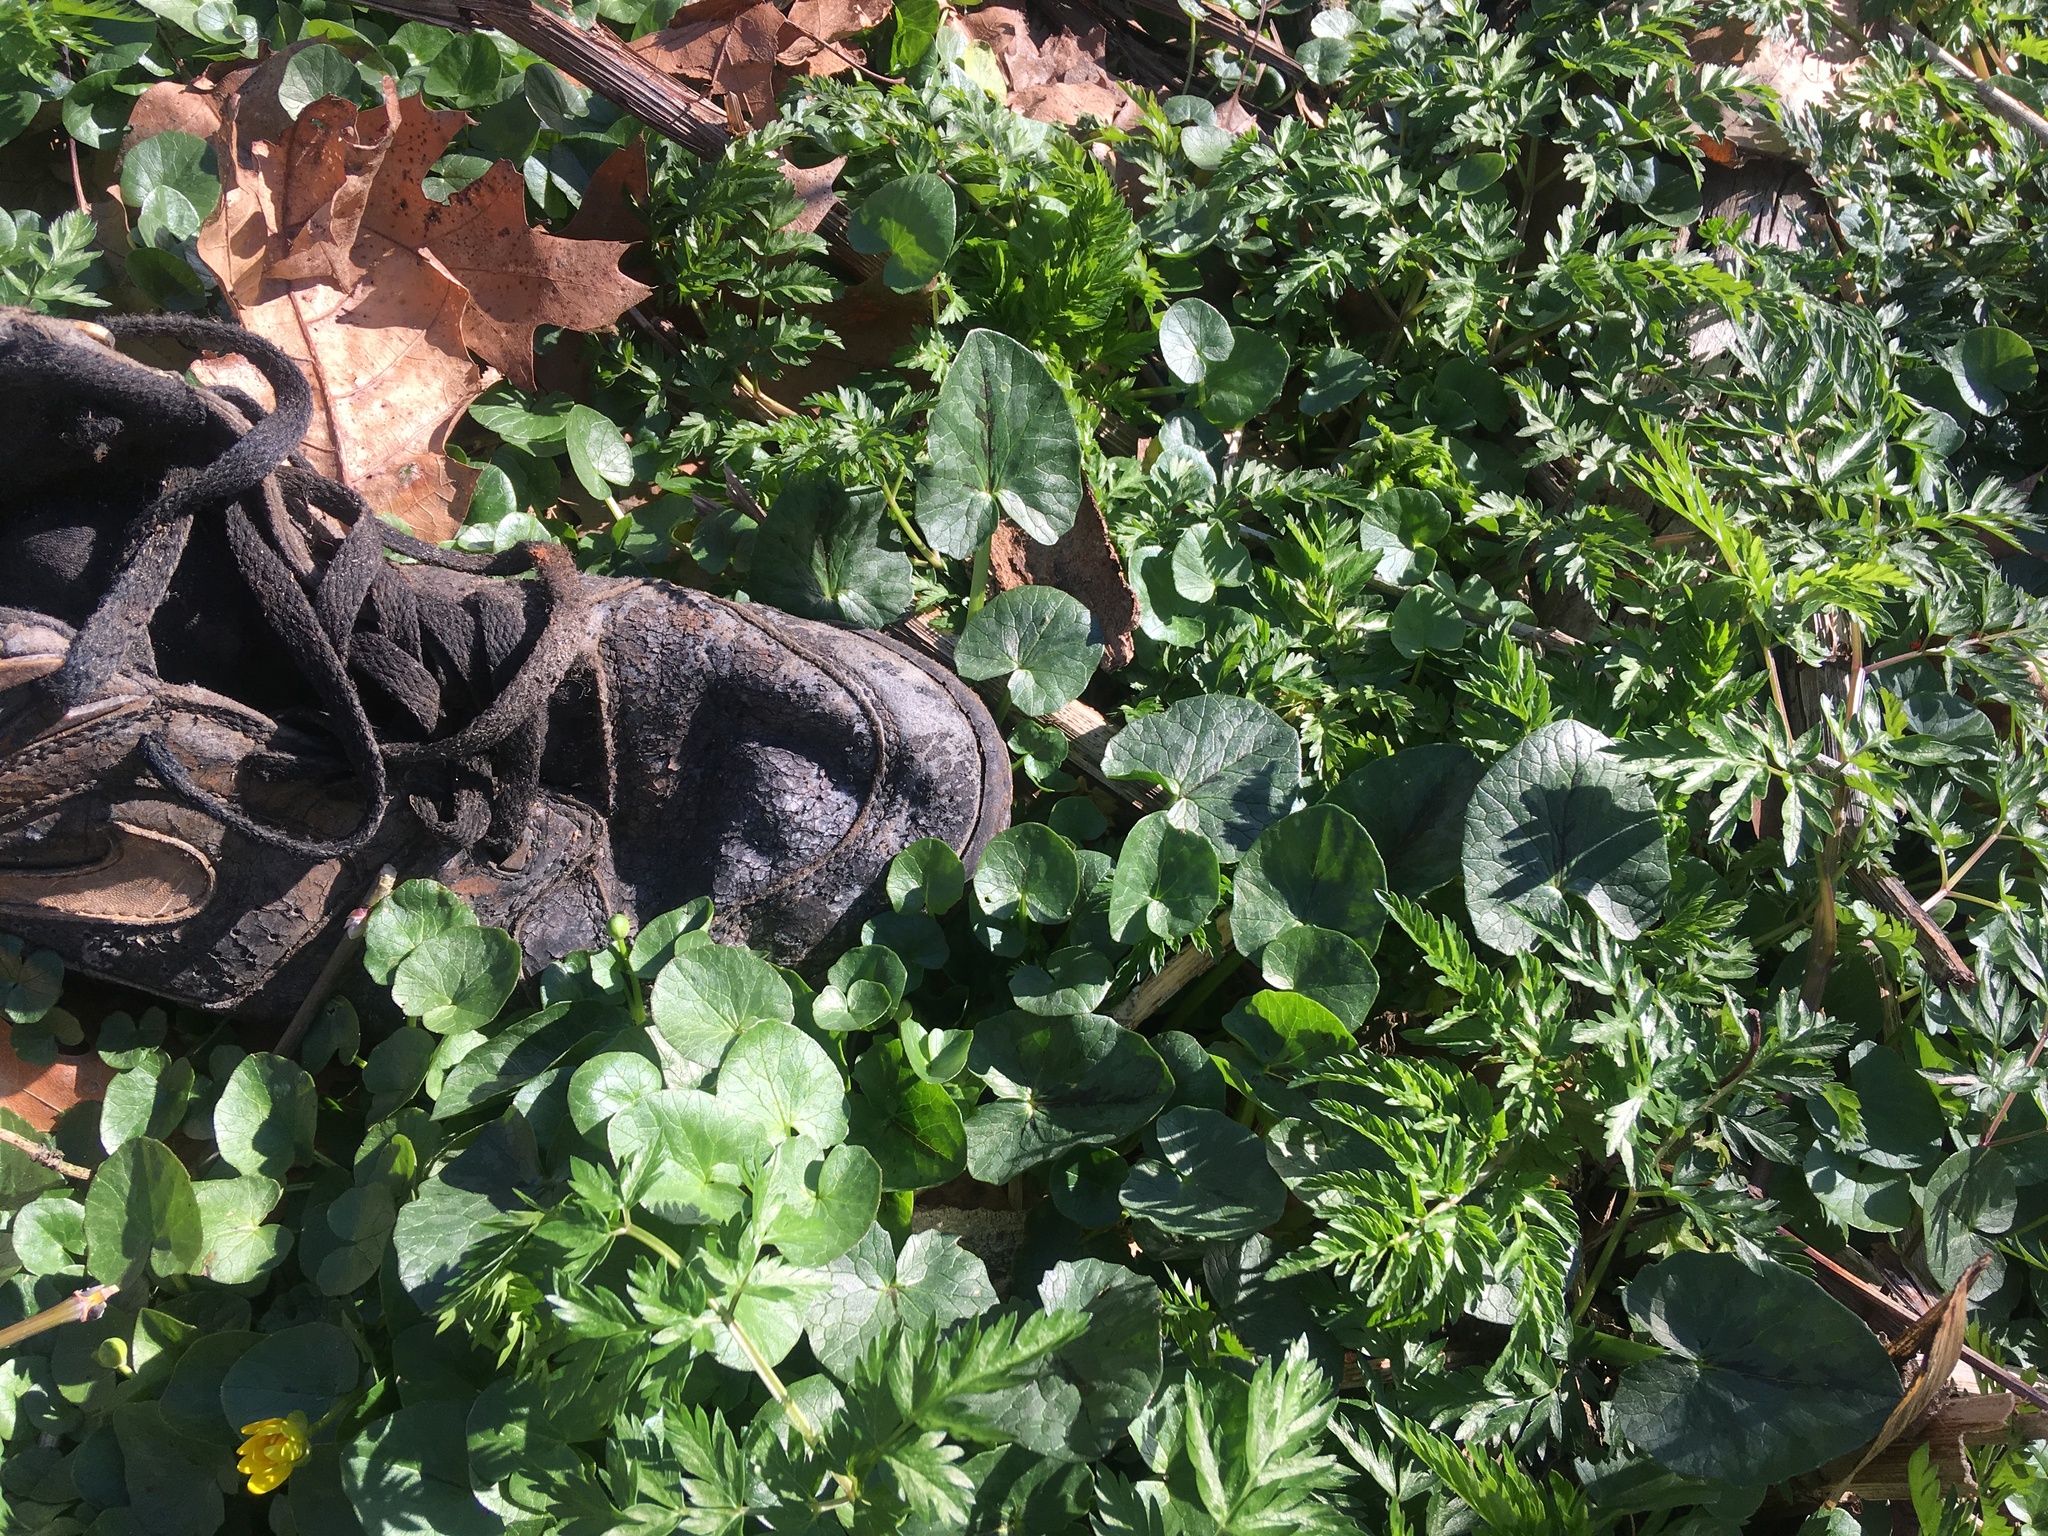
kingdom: Plantae
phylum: Tracheophyta
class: Magnoliopsida
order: Ranunculales
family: Ranunculaceae
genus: Ficaria
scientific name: Ficaria verna
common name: Lesser celandine
